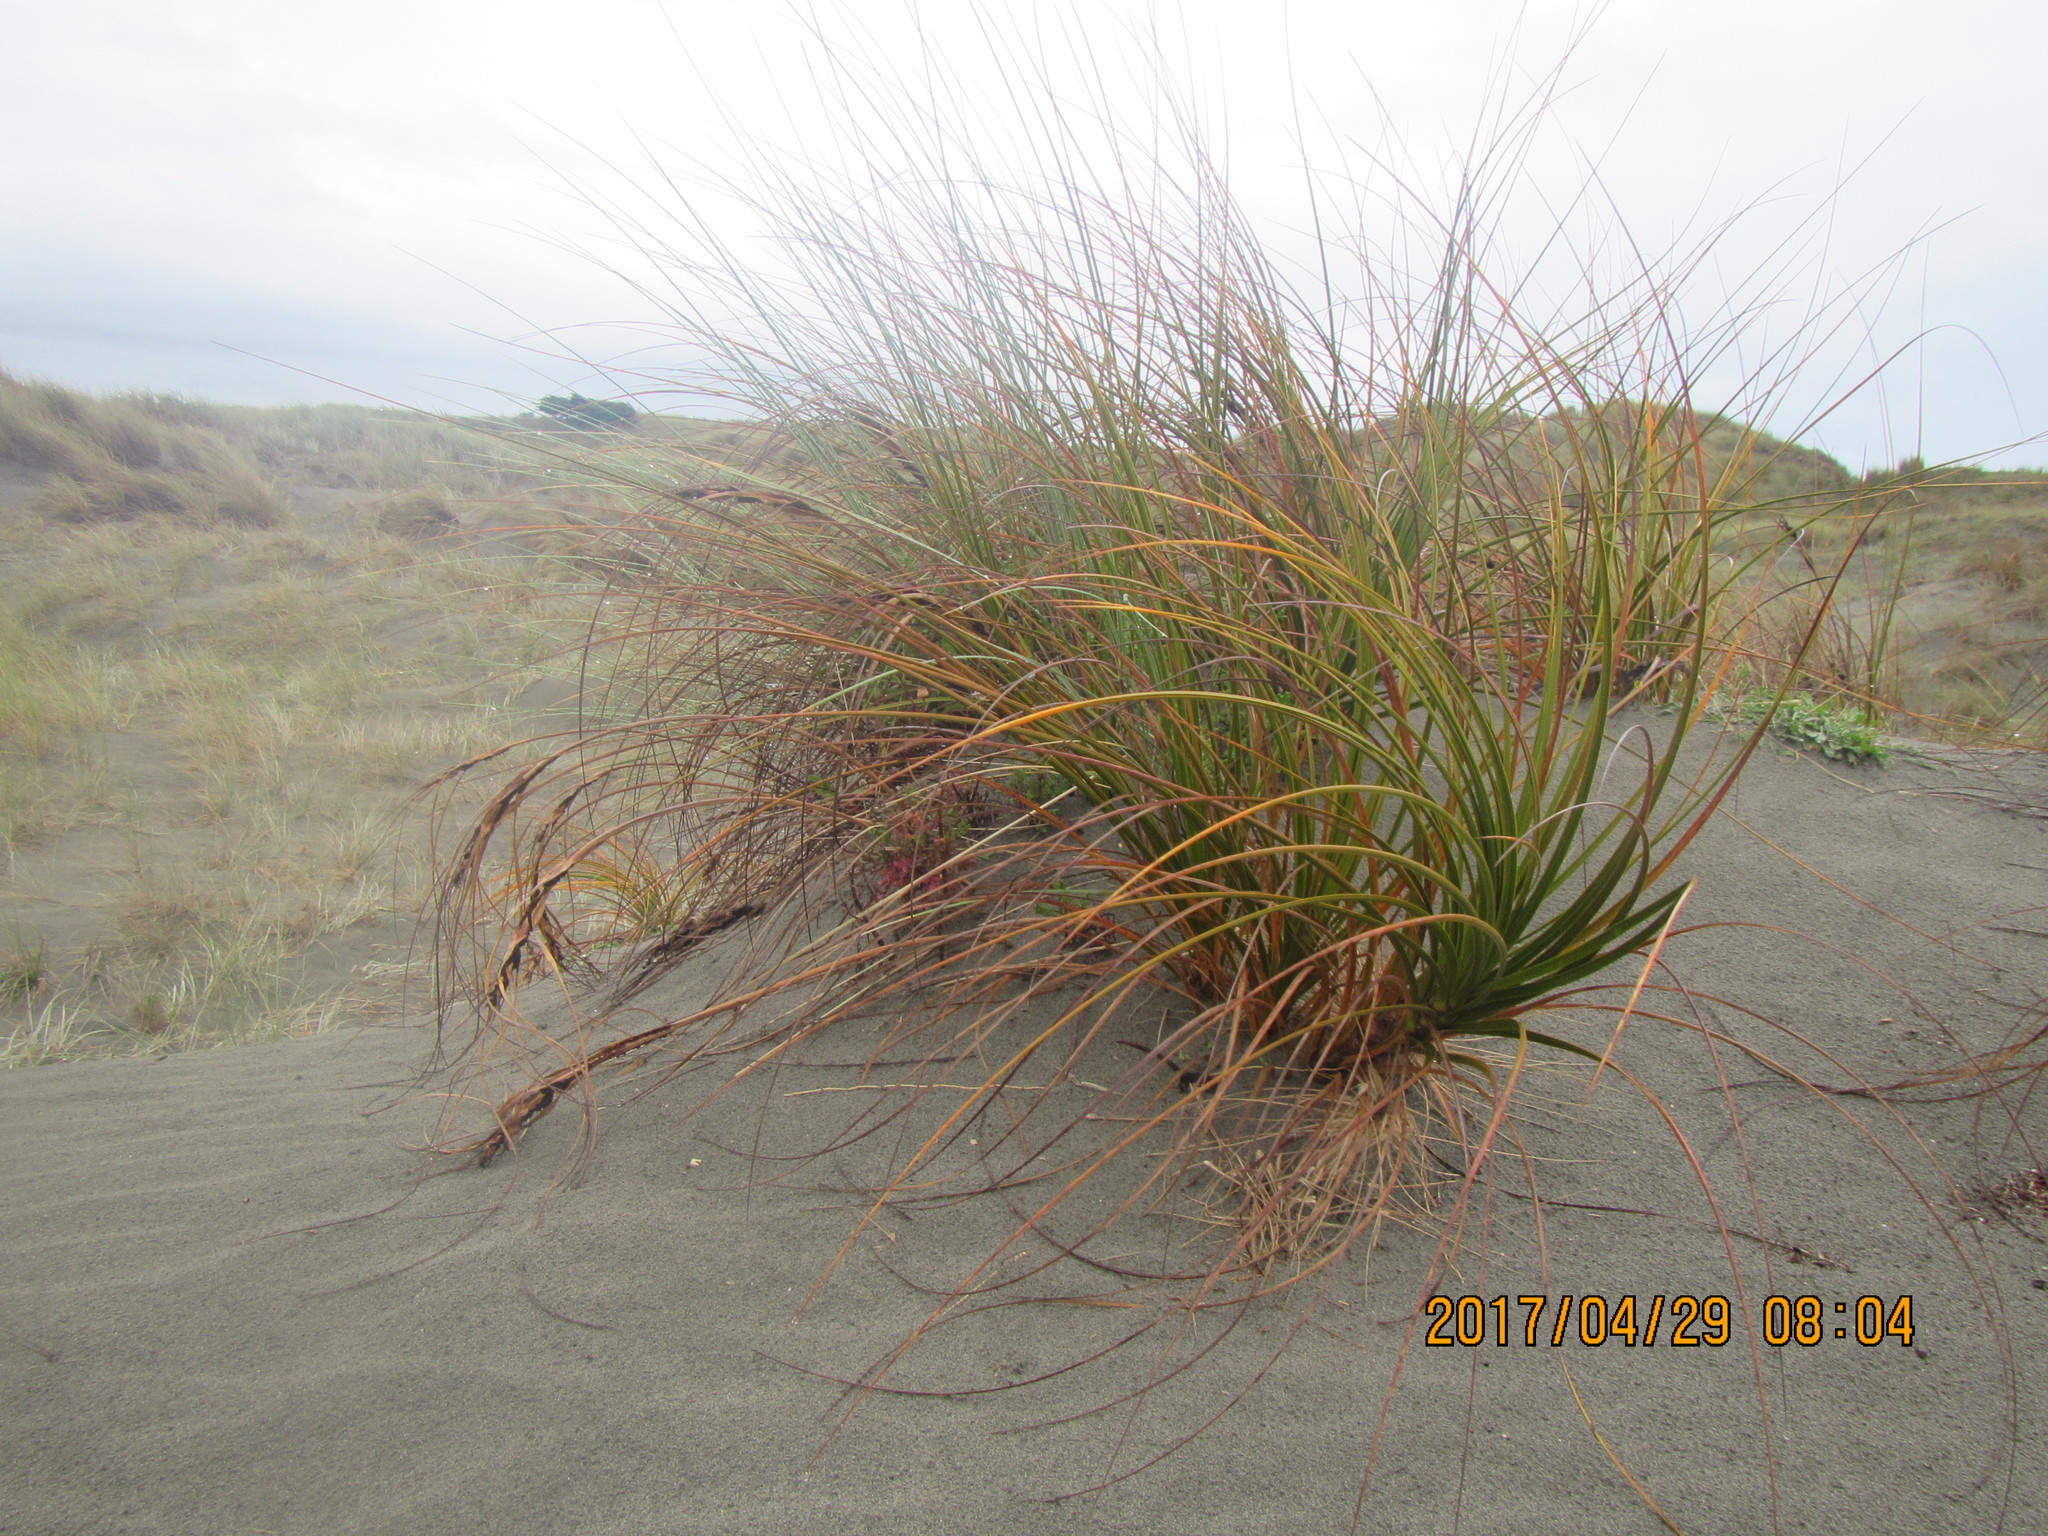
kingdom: Plantae
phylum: Tracheophyta
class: Liliopsida
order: Poales
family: Cyperaceae
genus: Ficinia
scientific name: Ficinia spiralis
